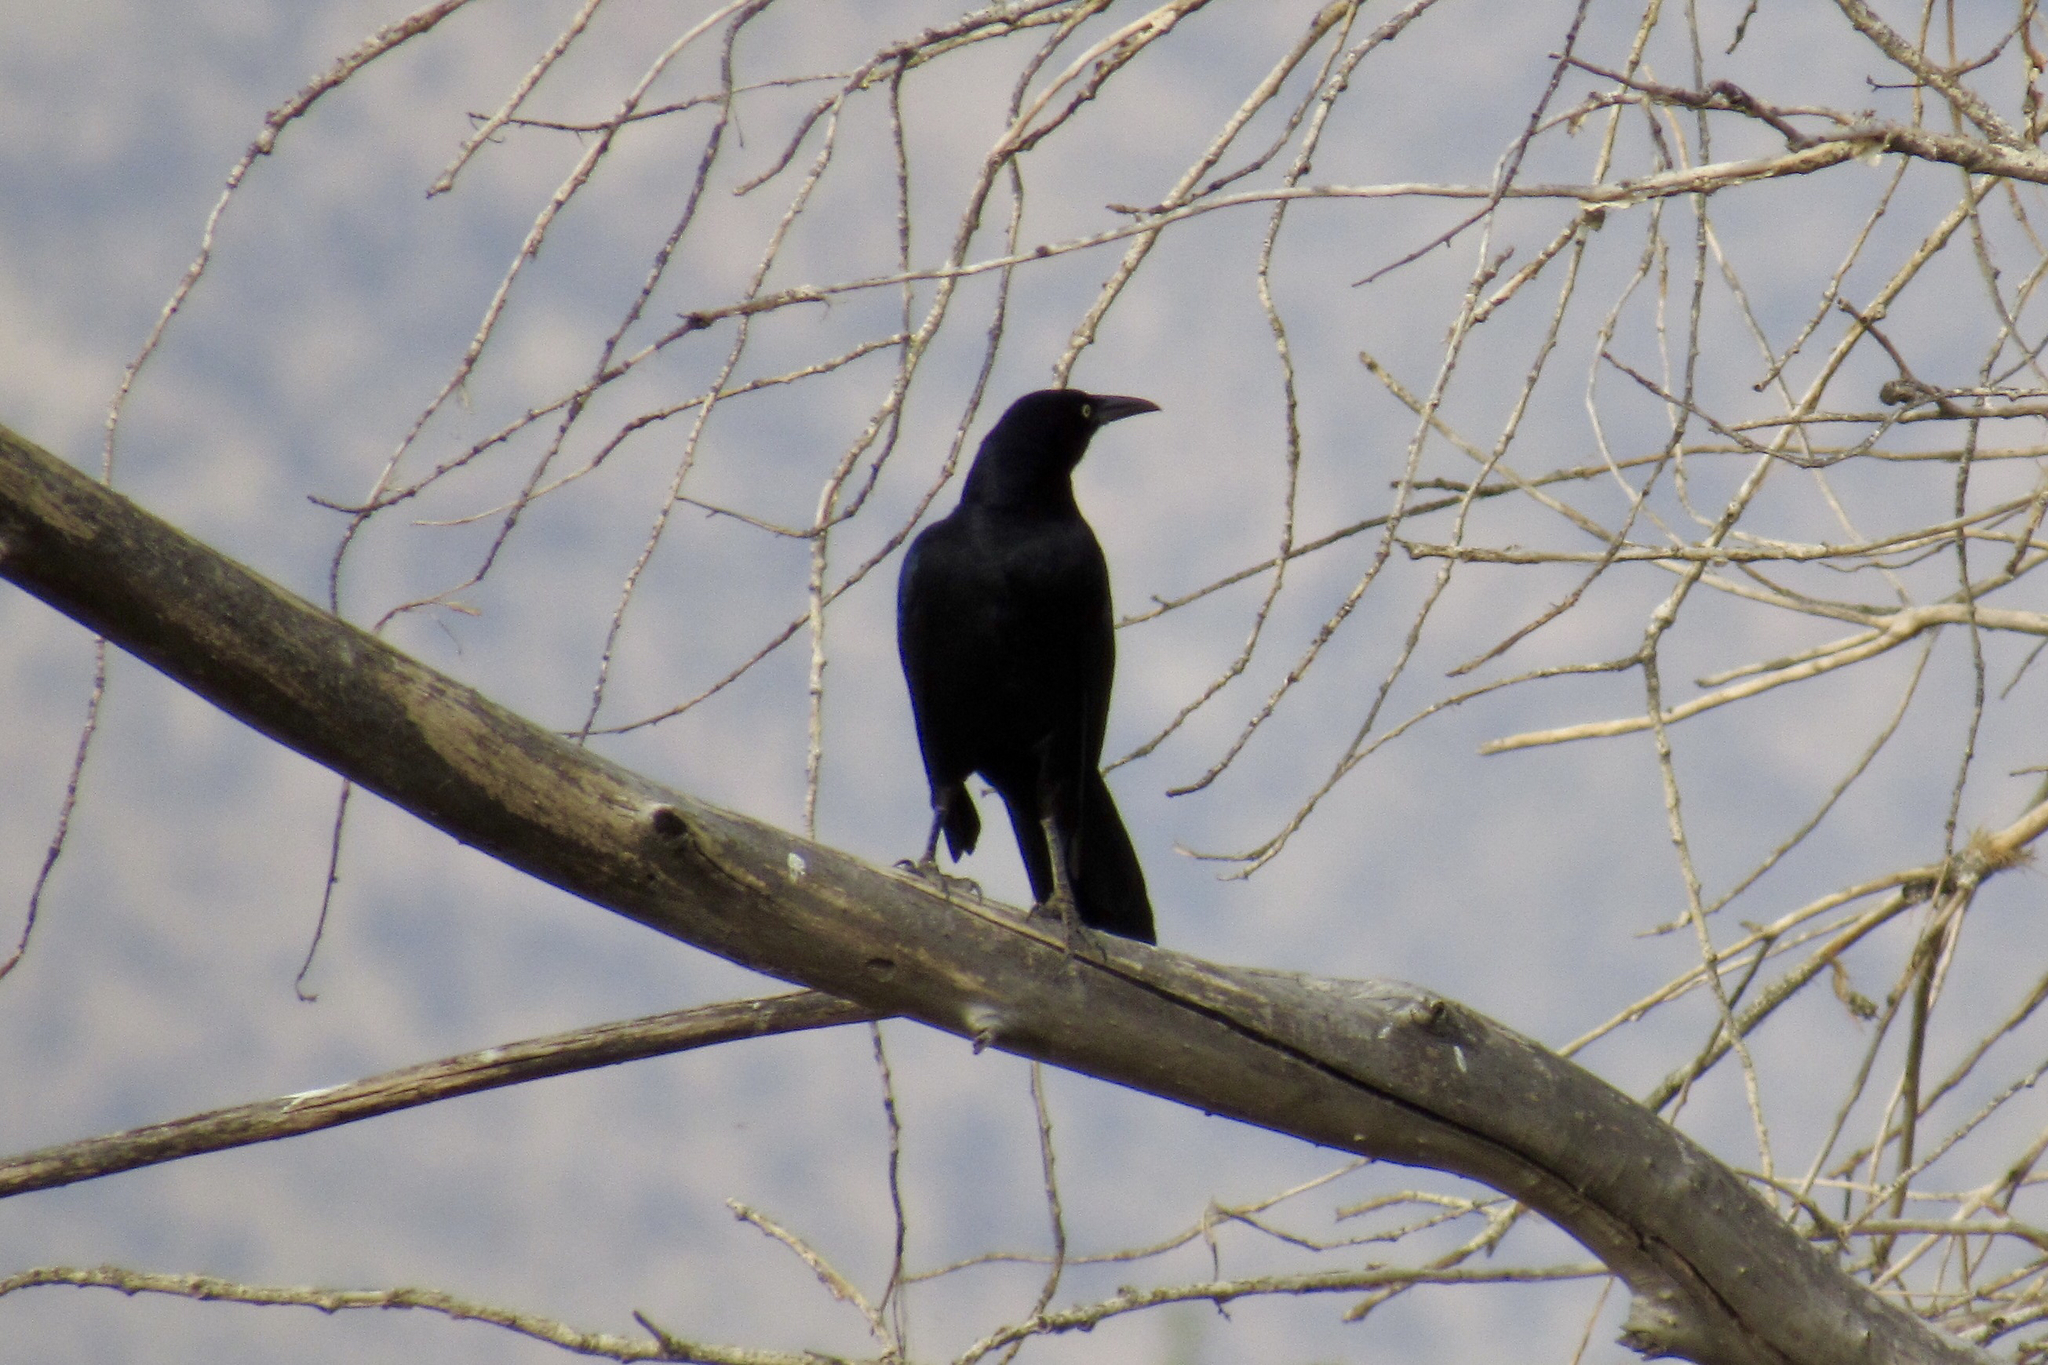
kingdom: Animalia
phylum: Chordata
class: Aves
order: Passeriformes
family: Icteridae
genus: Quiscalus
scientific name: Quiscalus mexicanus
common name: Great-tailed grackle
